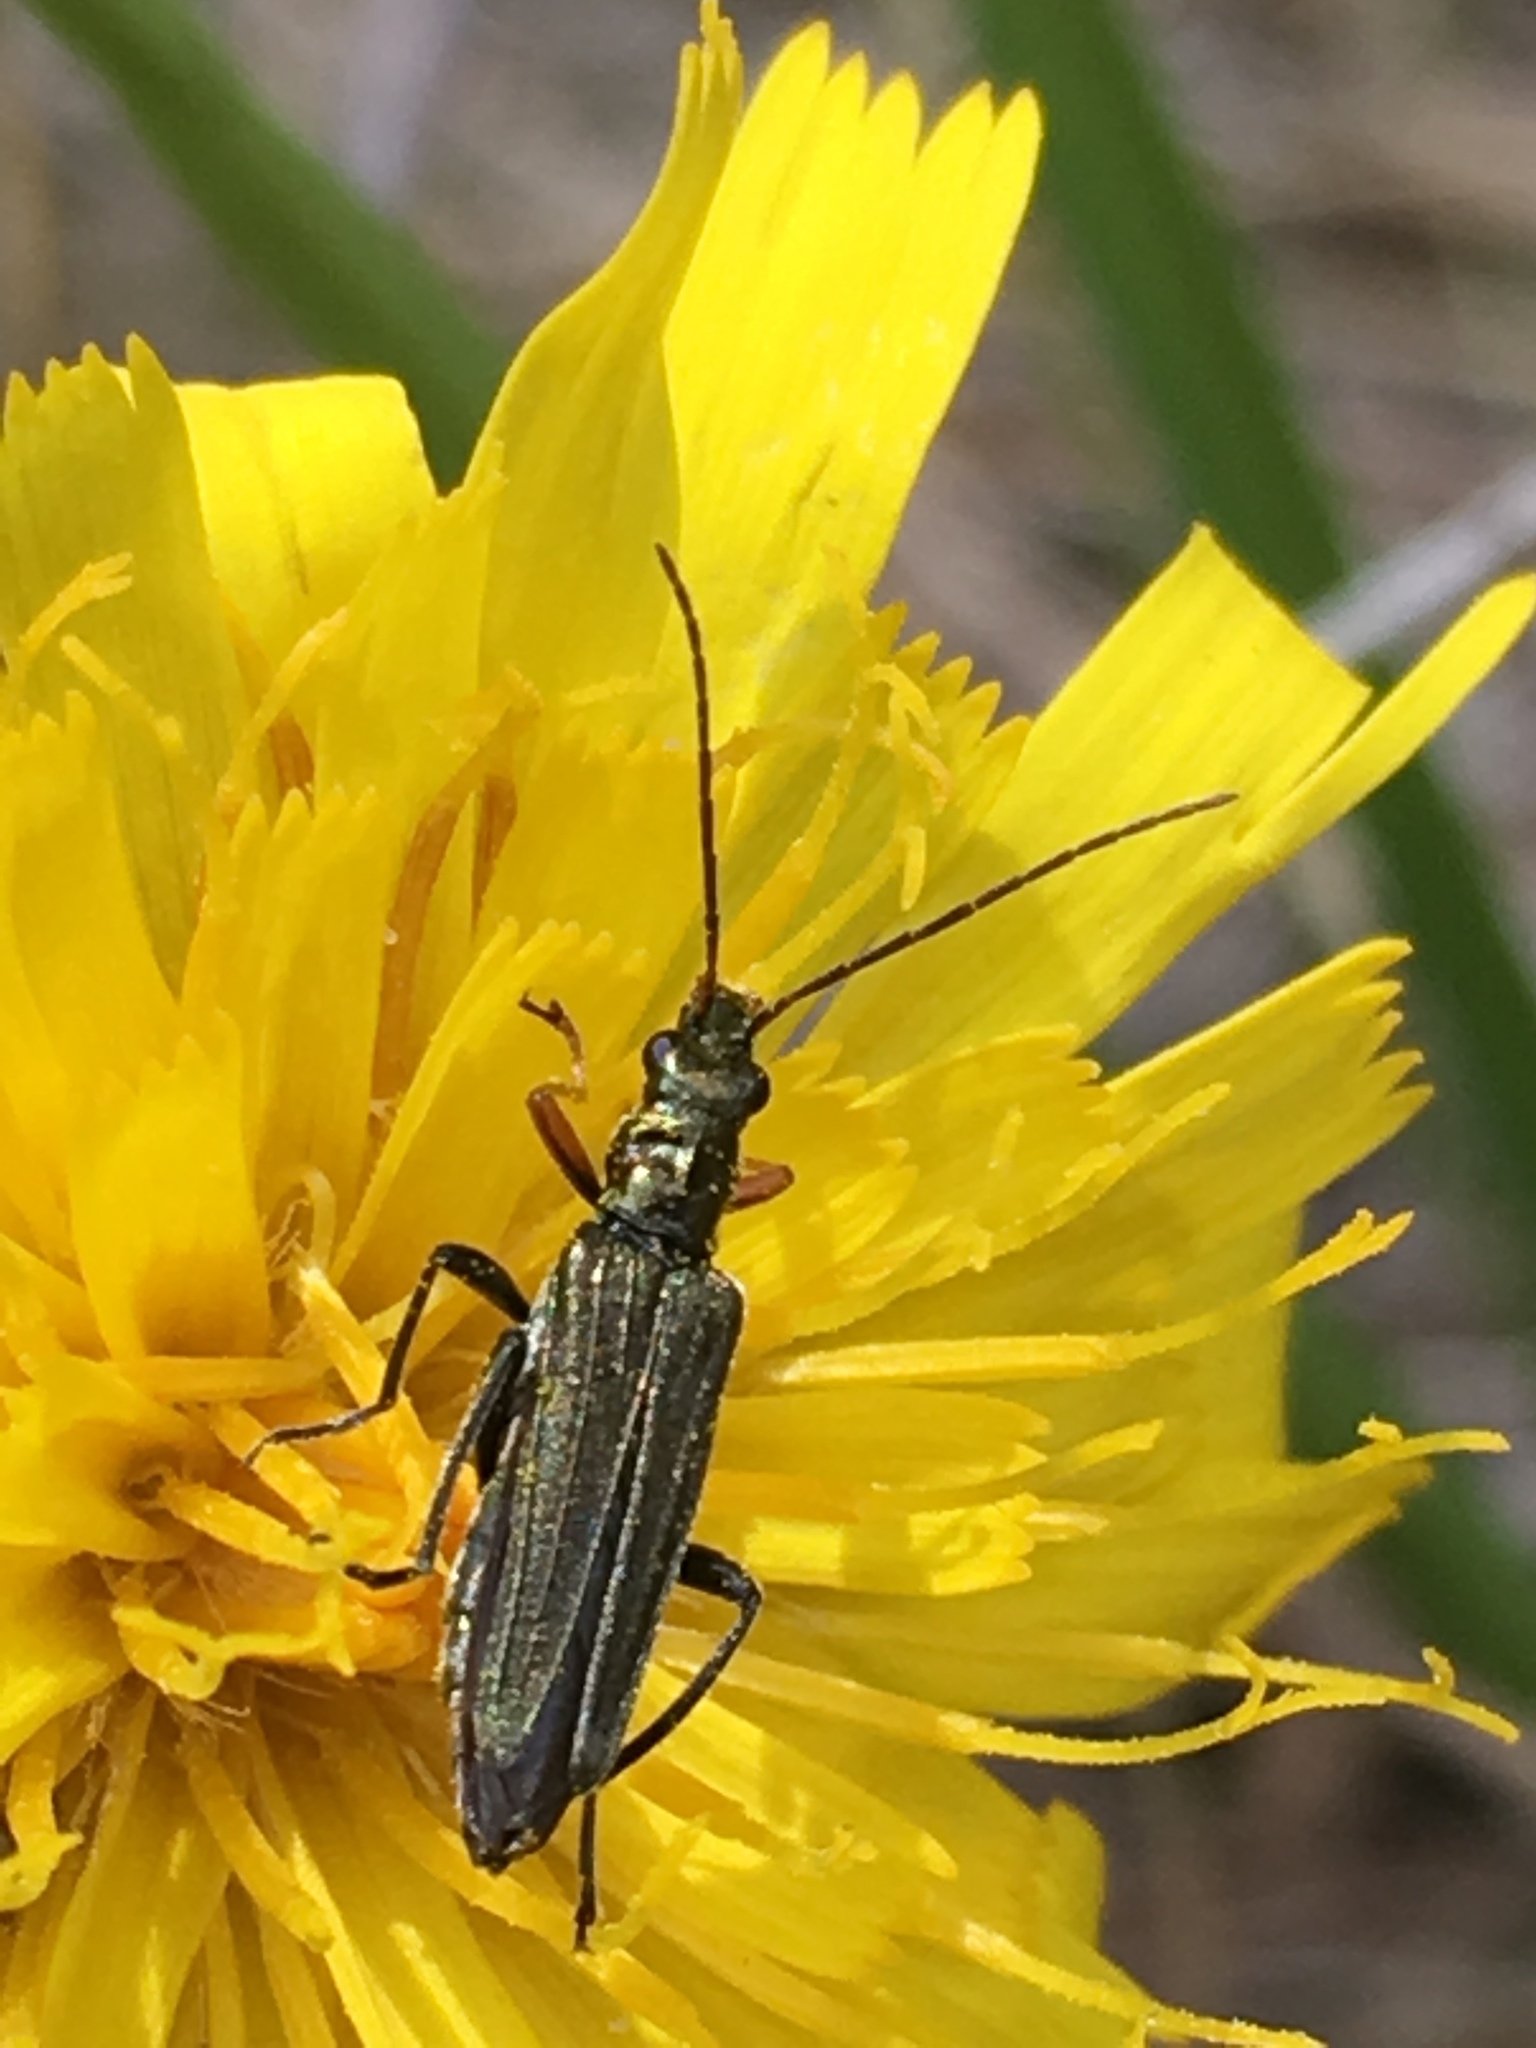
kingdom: Animalia
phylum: Arthropoda
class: Insecta
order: Coleoptera
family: Oedemeridae
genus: Oedemera
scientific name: Oedemera flavipes
